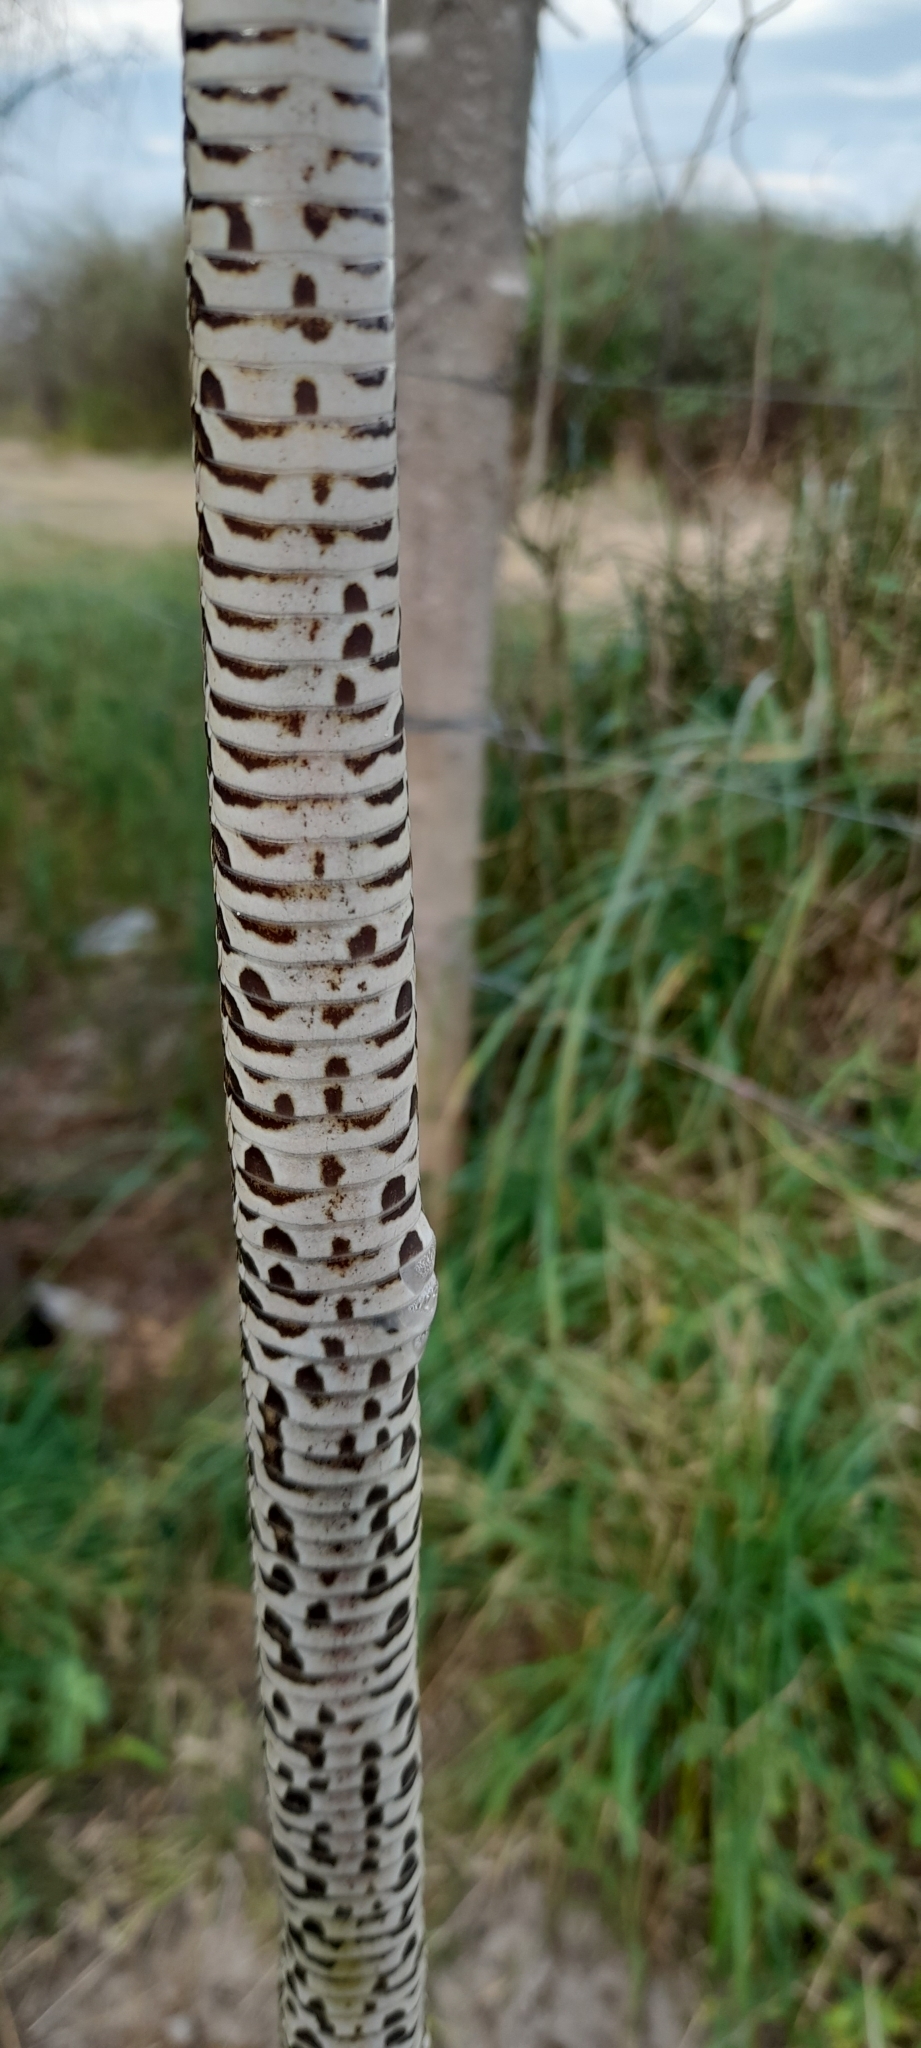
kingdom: Animalia
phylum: Chordata
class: Squamata
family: Viperidae
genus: Bothrops
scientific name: Bothrops alternatus
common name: Urutu
